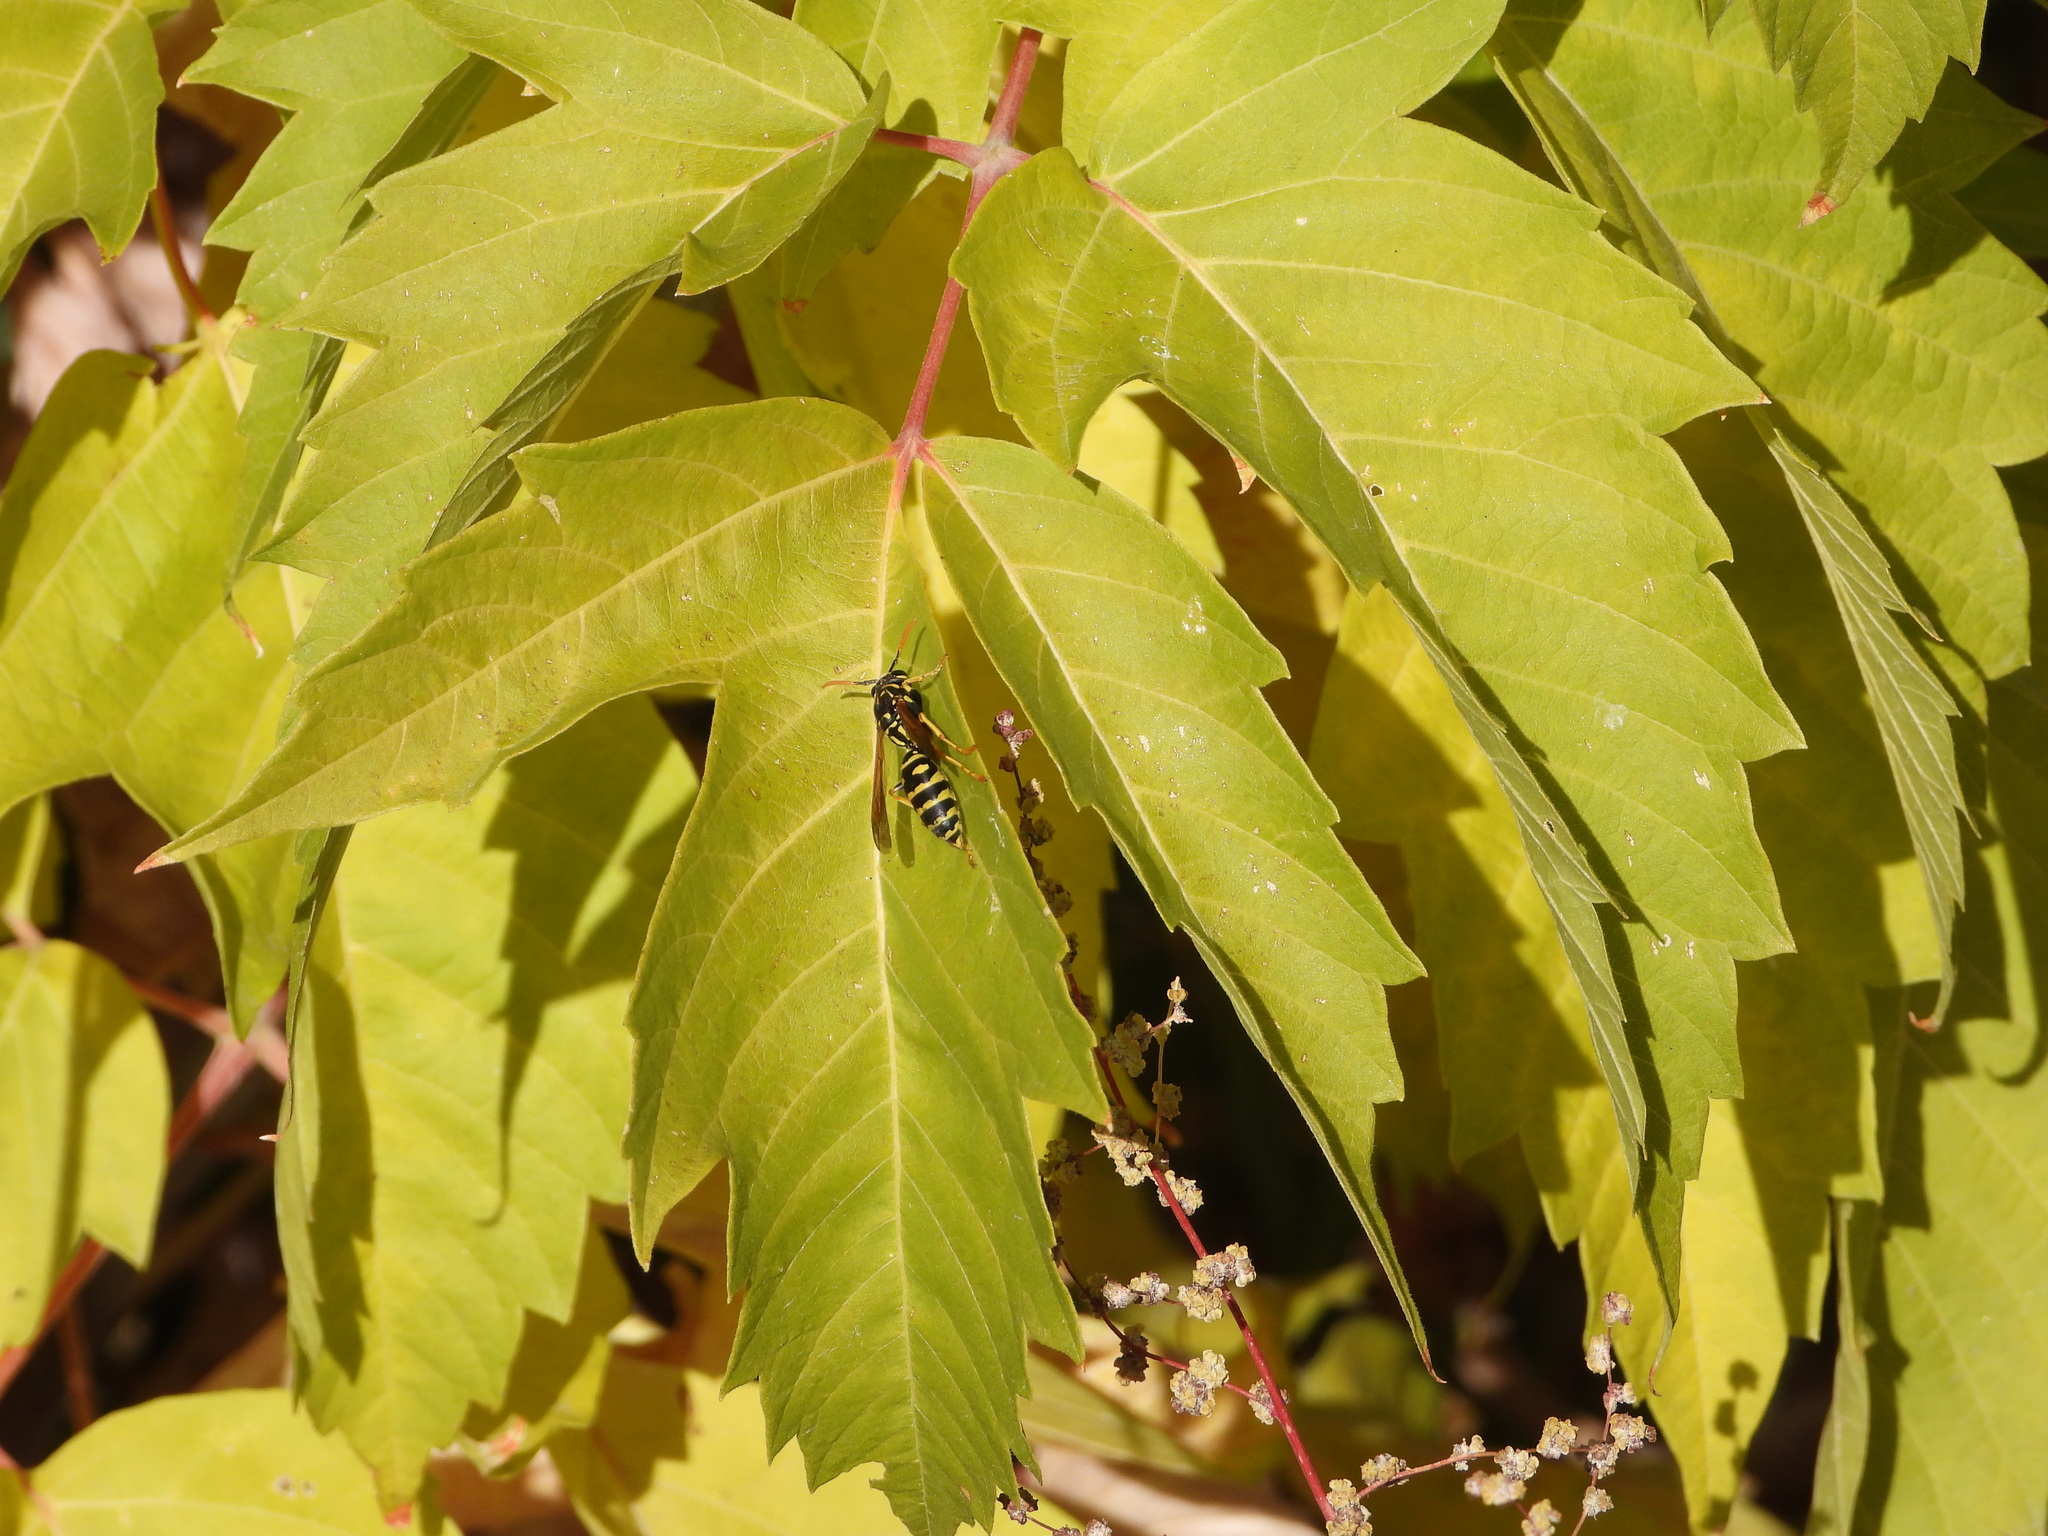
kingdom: Animalia
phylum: Arthropoda
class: Insecta
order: Hymenoptera
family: Eumenidae
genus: Polistes
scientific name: Polistes dominula
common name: Paper wasp
